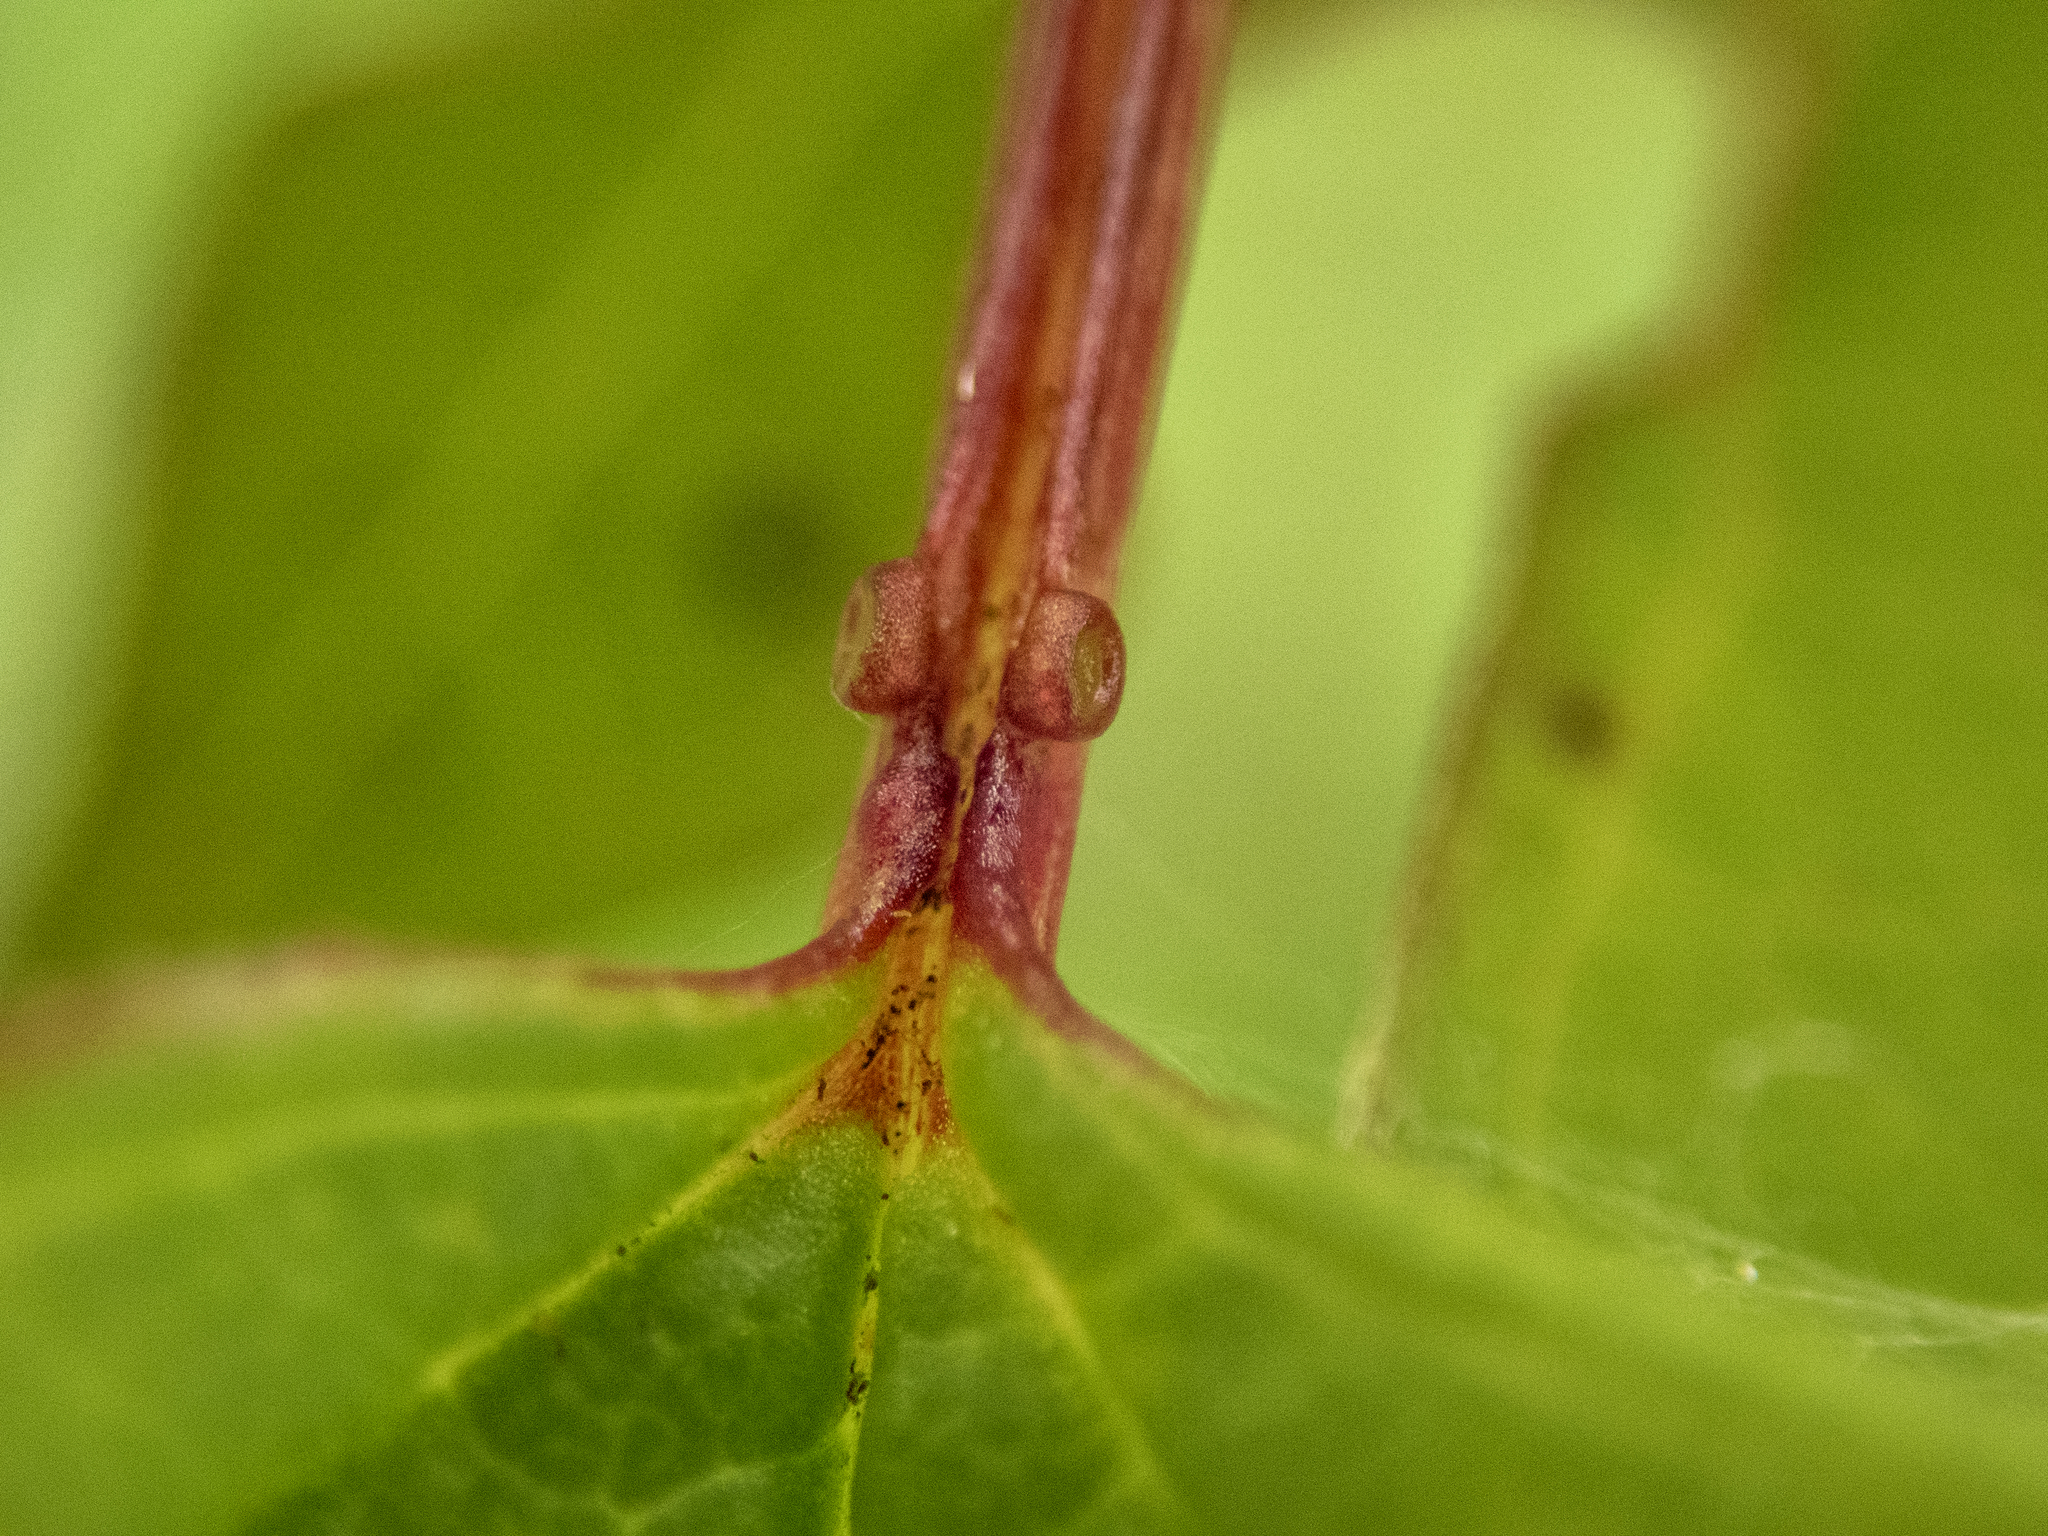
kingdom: Plantae
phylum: Tracheophyta
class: Magnoliopsida
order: Dipsacales
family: Viburnaceae
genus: Viburnum
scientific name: Viburnum opulus
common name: Guelder-rose
